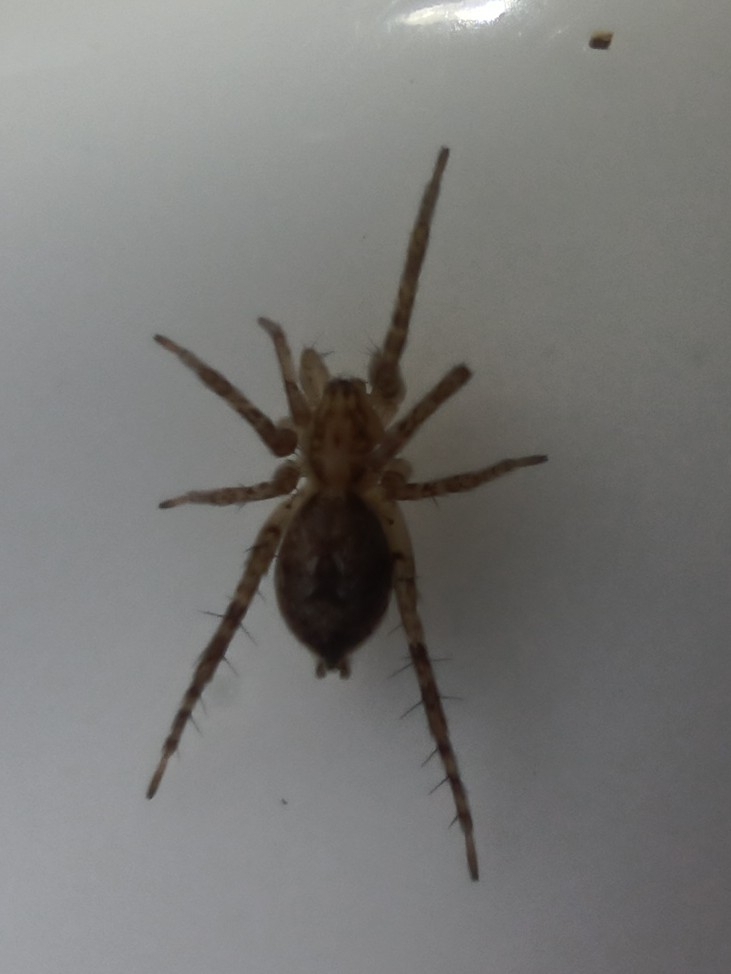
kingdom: Animalia
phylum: Arthropoda
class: Arachnida
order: Araneae
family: Anyphaenidae
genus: Anyphaena
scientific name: Anyphaena accentuata
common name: Buzzing spider
